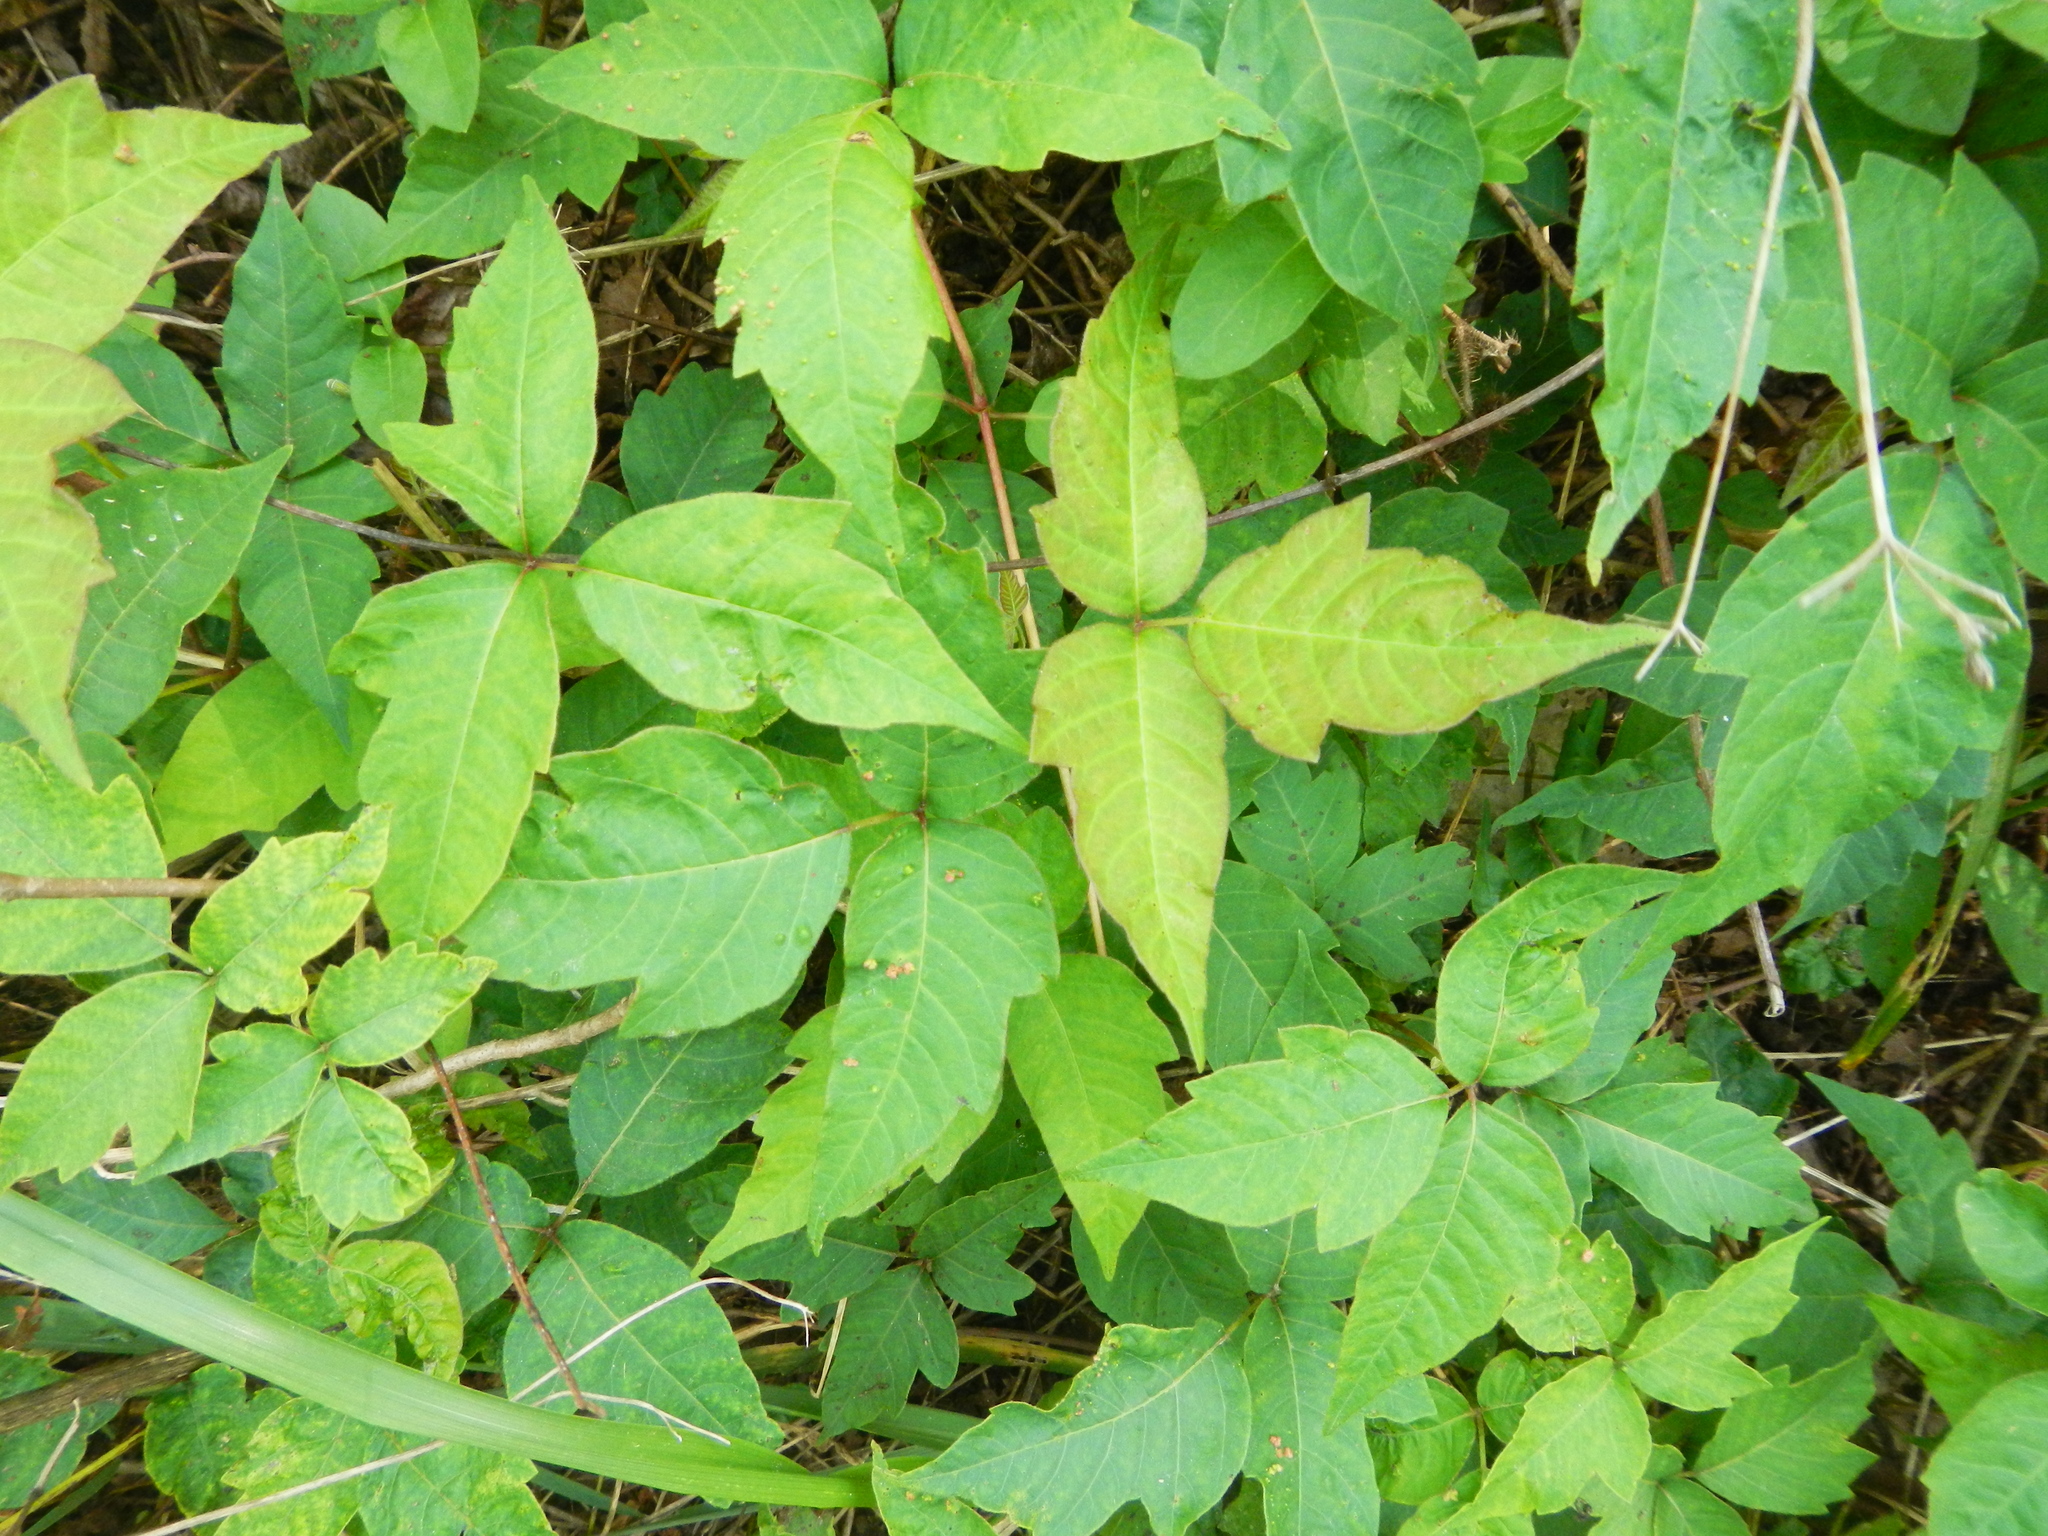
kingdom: Plantae
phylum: Tracheophyta
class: Magnoliopsida
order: Sapindales
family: Anacardiaceae
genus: Toxicodendron
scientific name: Toxicodendron radicans
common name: Poison ivy
